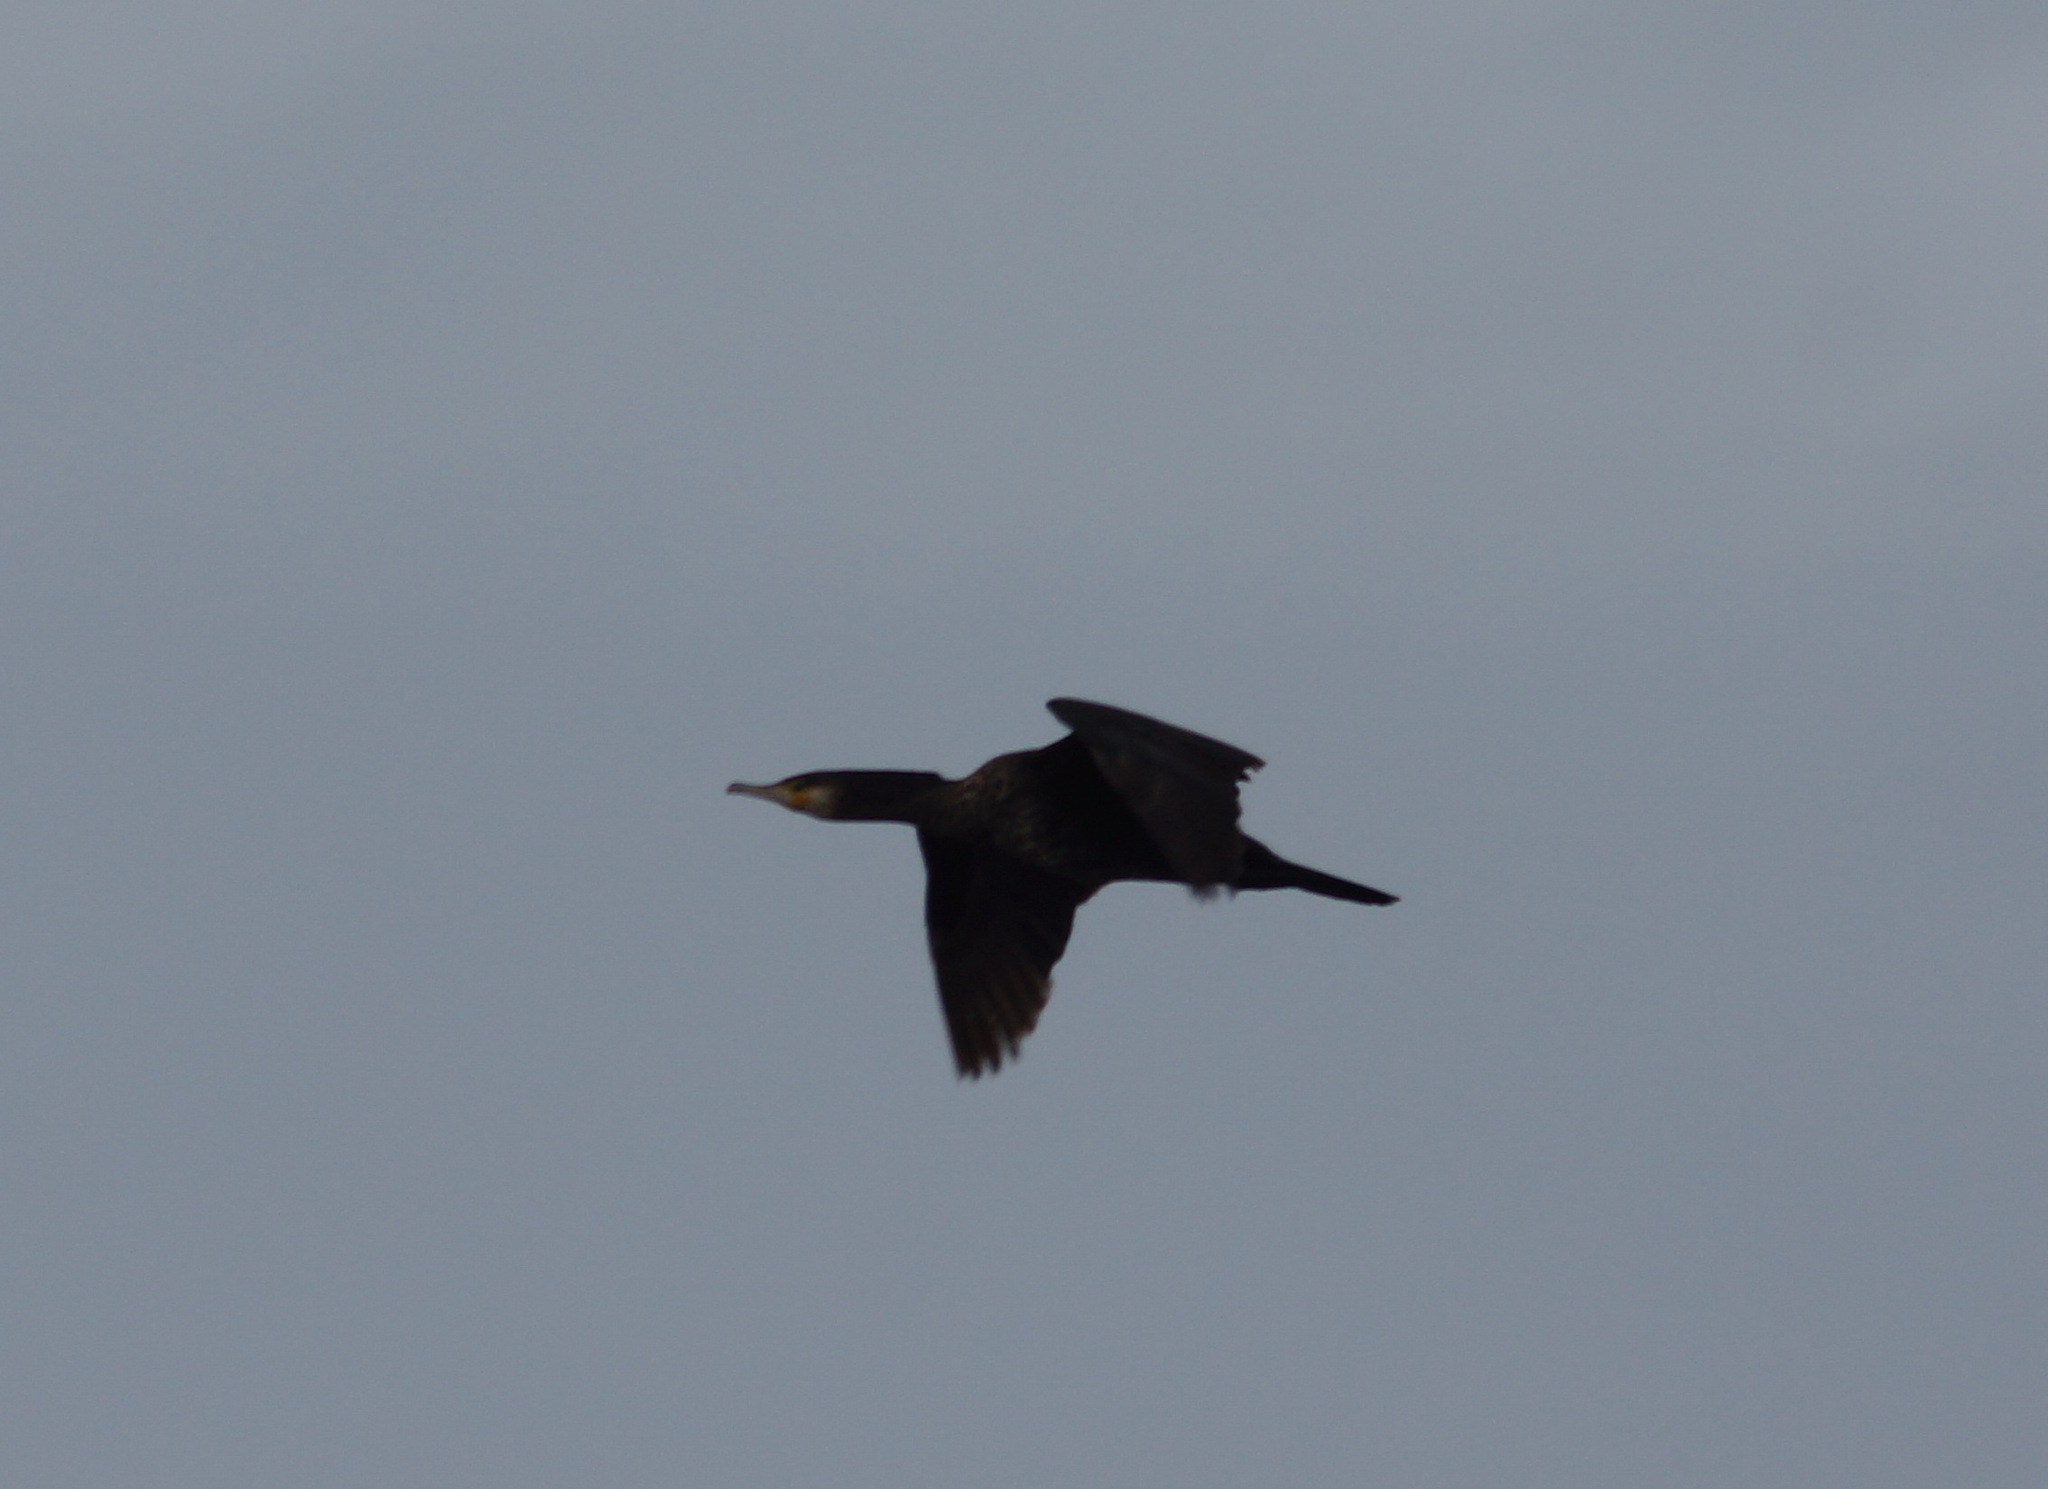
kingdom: Animalia
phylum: Chordata
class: Aves
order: Suliformes
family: Phalacrocoracidae
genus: Phalacrocorax
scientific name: Phalacrocorax carbo
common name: Great cormorant
